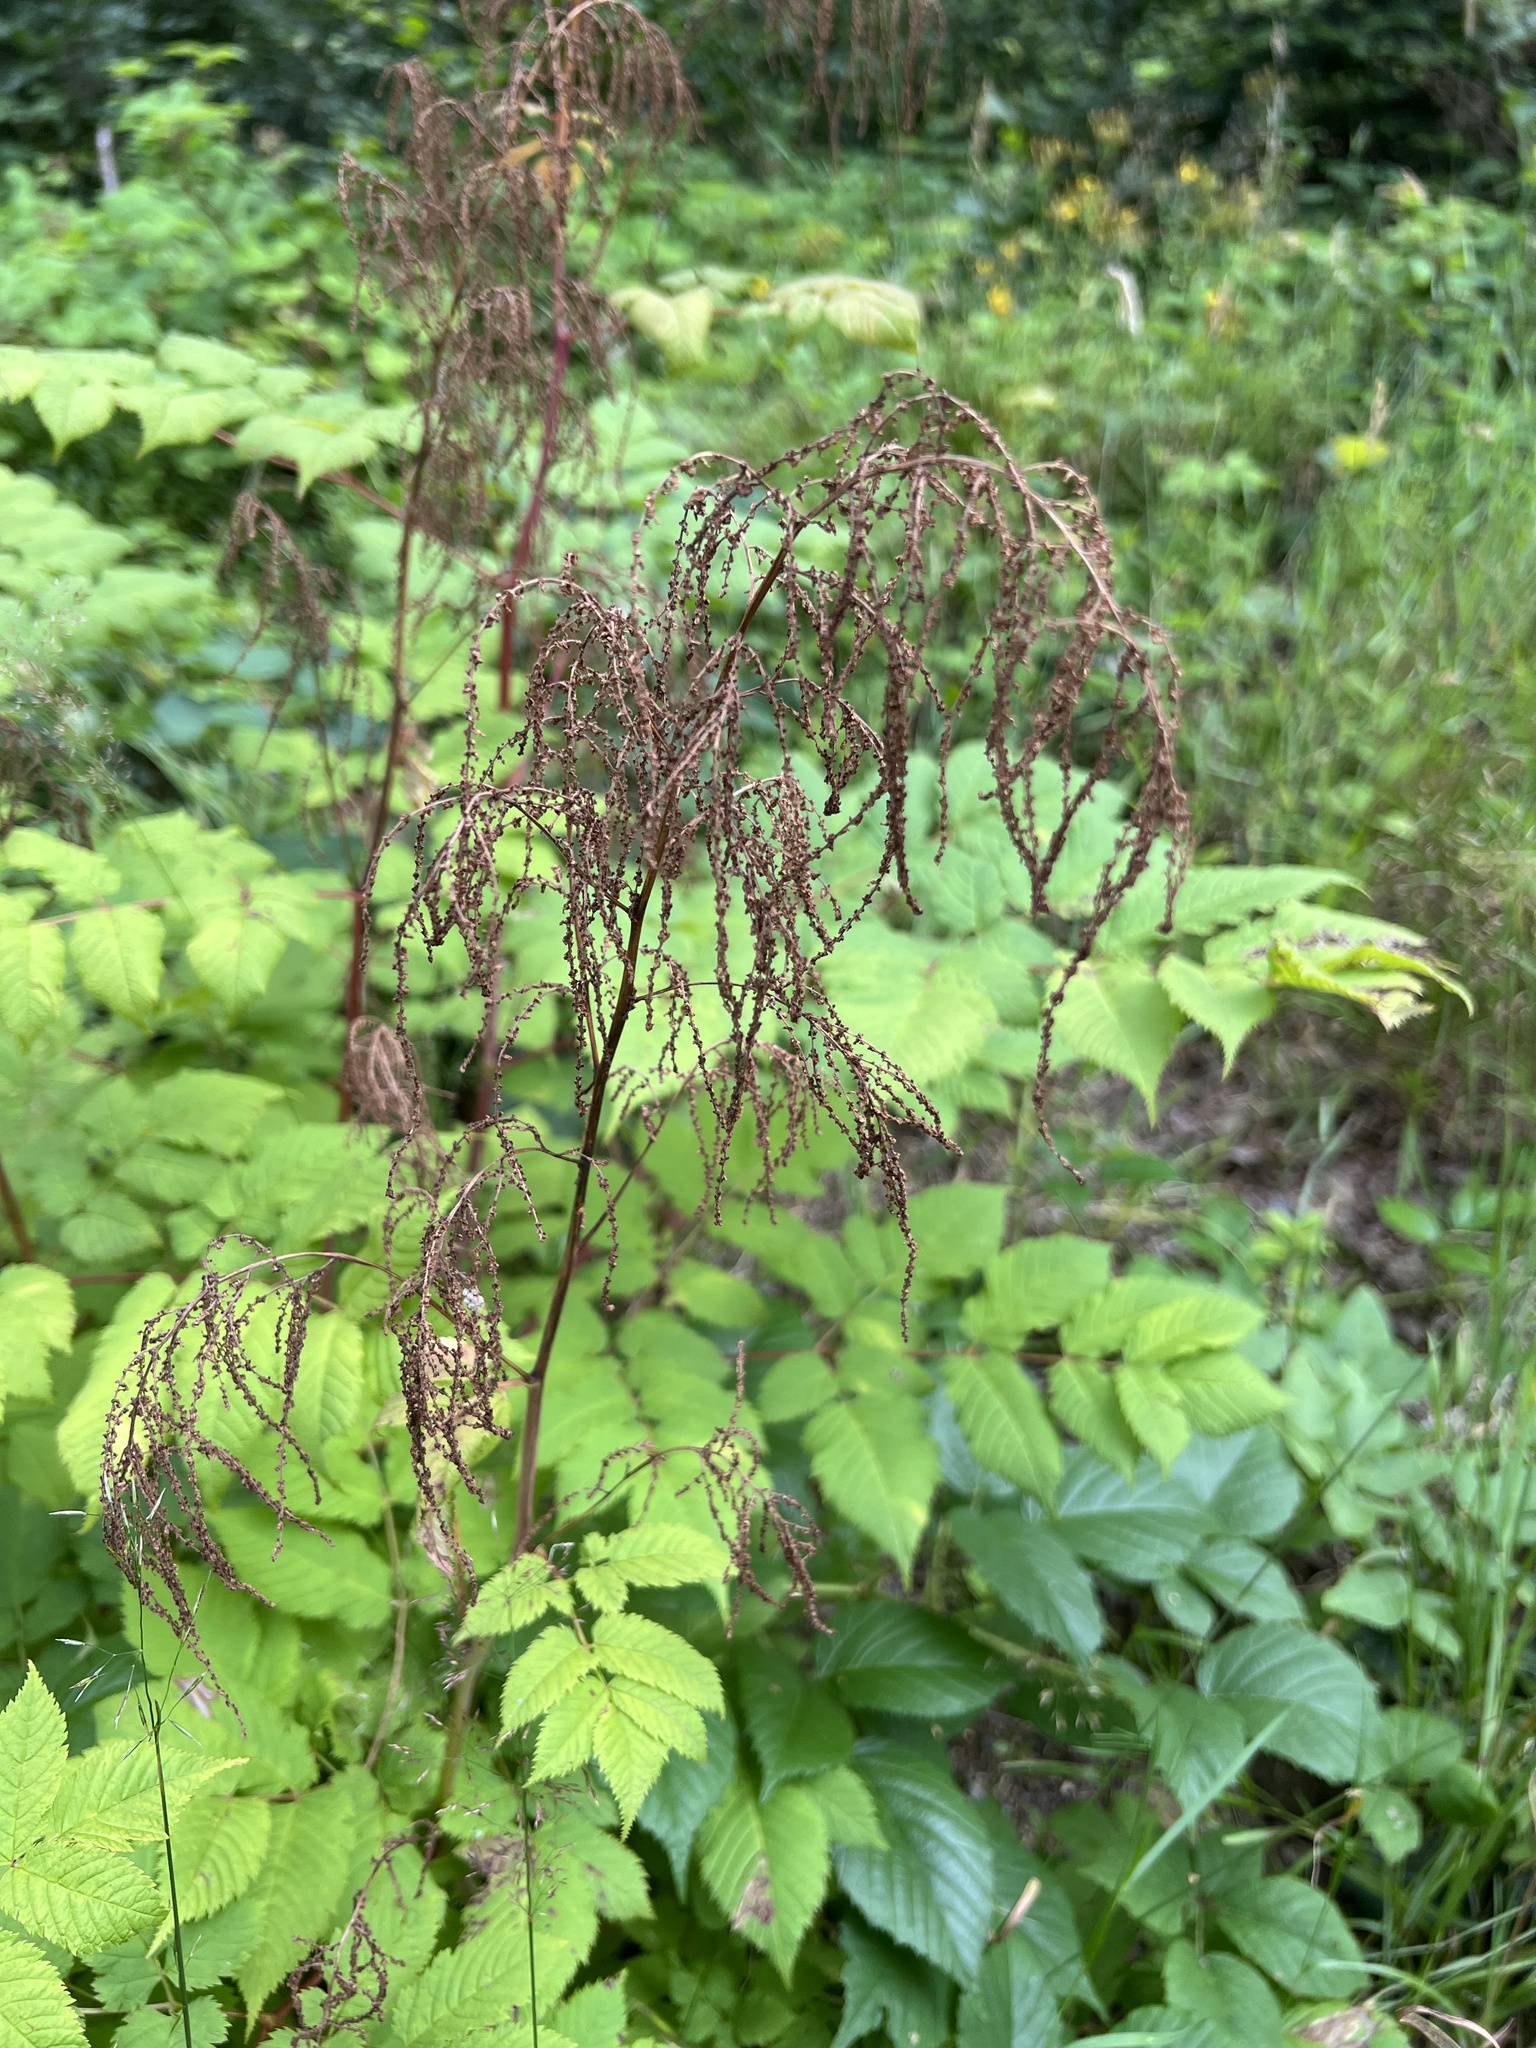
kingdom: Plantae
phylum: Tracheophyta
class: Magnoliopsida
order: Rosales
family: Rosaceae
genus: Aruncus
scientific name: Aruncus dioicus
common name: Buck's-beard
